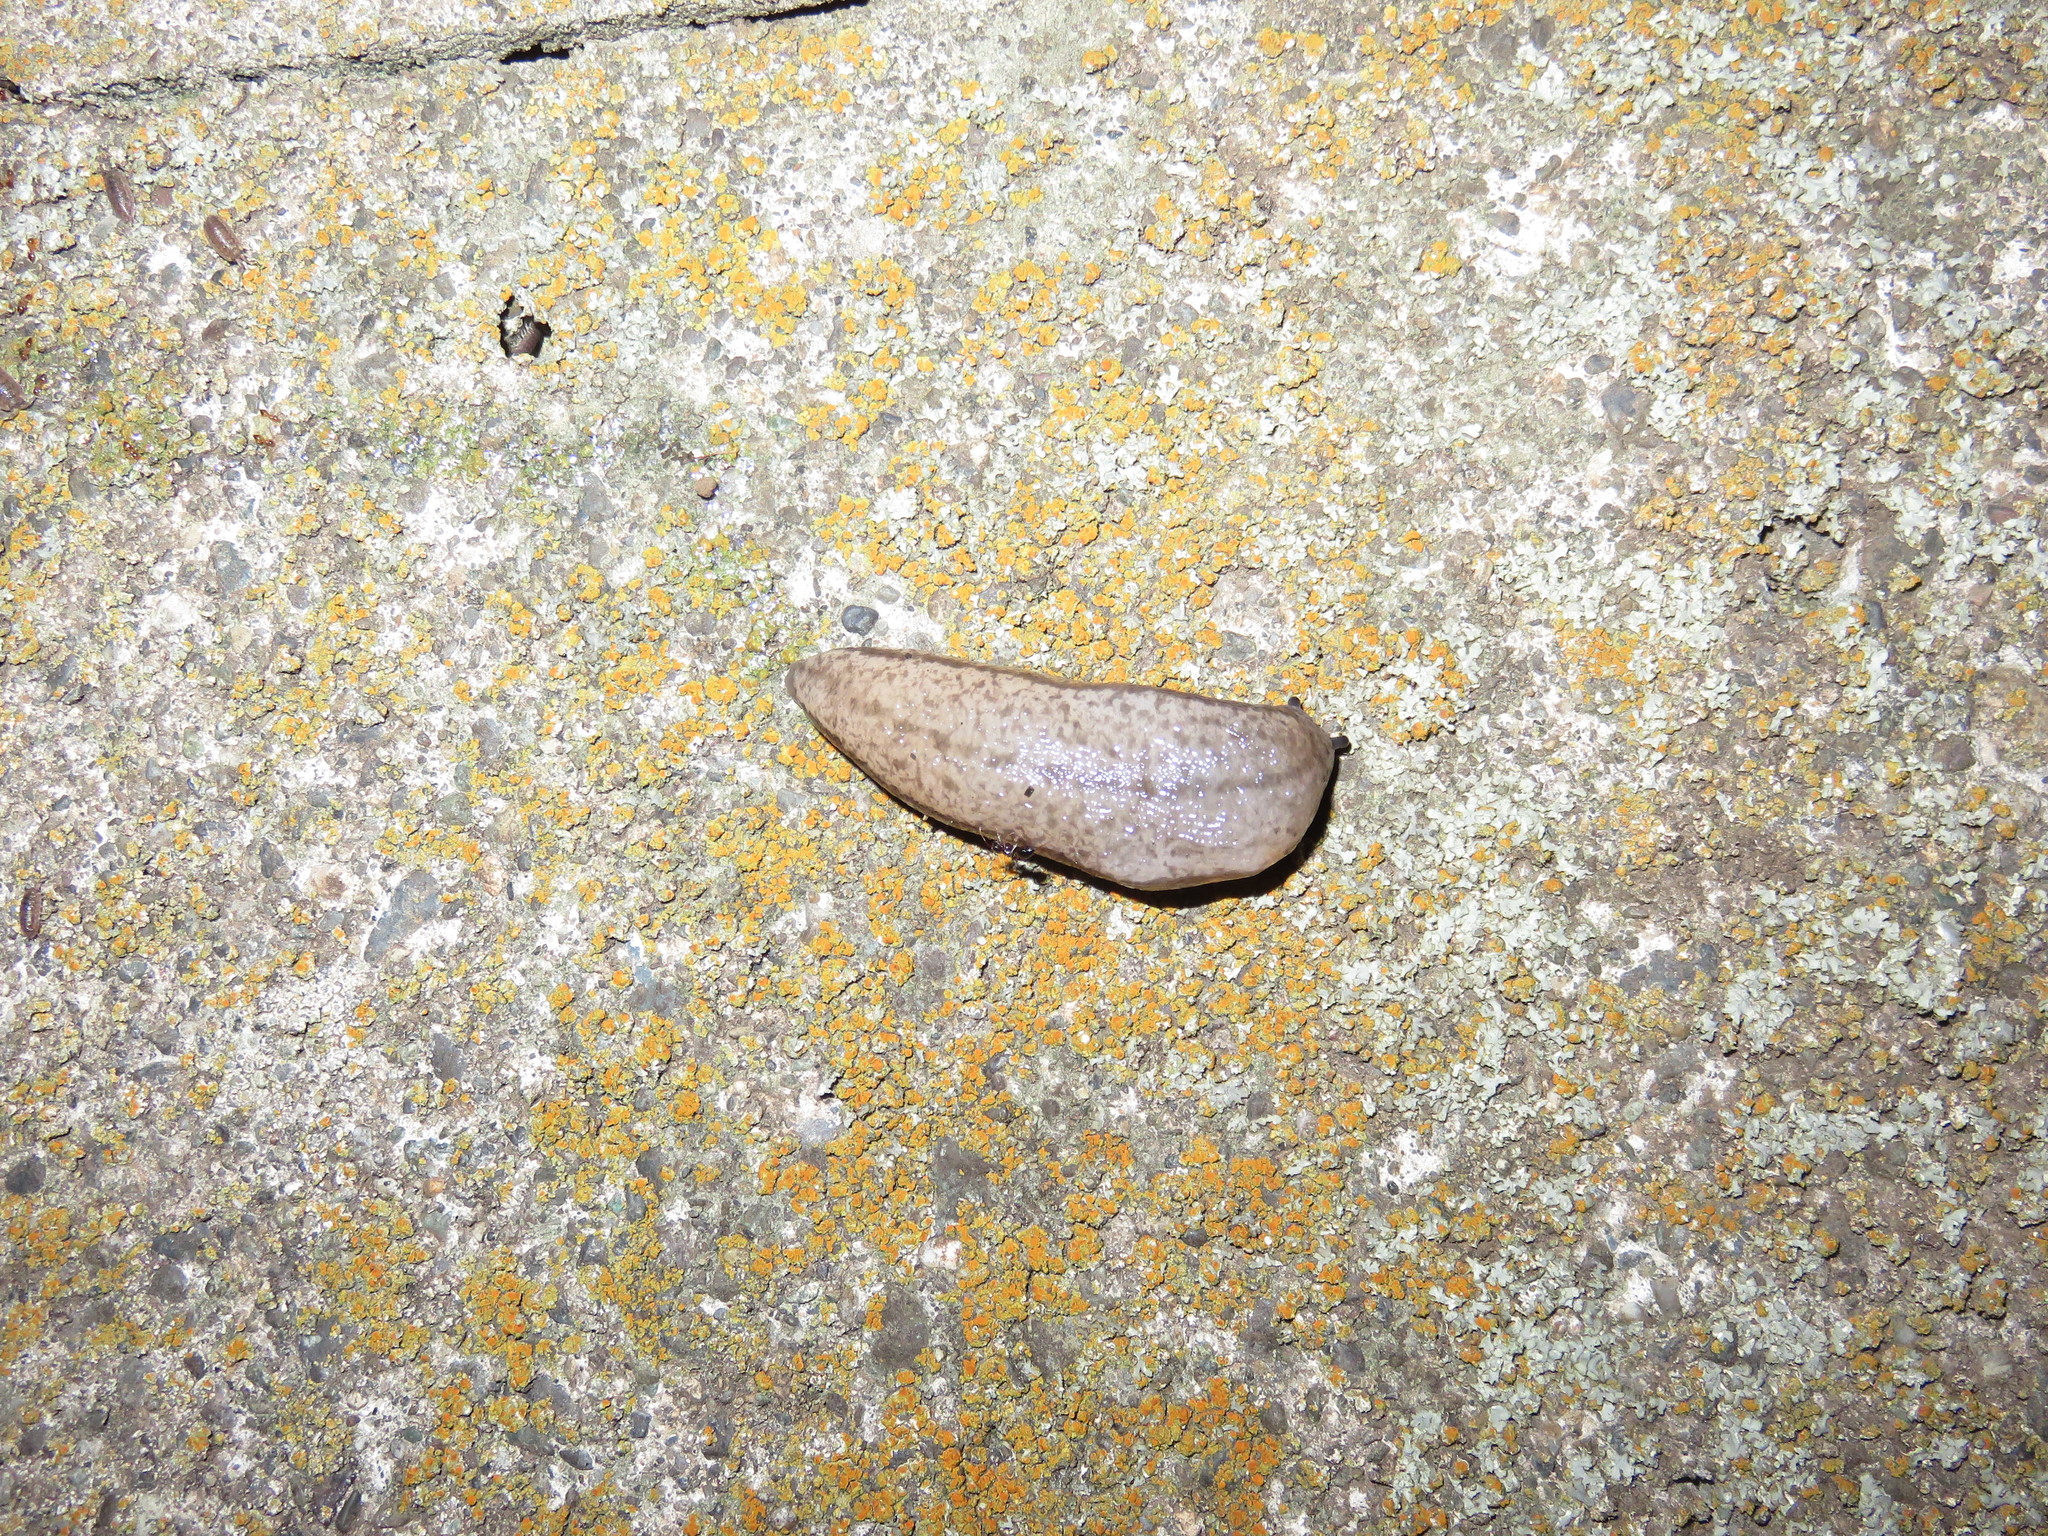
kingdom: Animalia
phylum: Mollusca
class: Gastropoda
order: Stylommatophora
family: Philomycidae
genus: Meghimatium
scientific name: Meghimatium bilineatum
